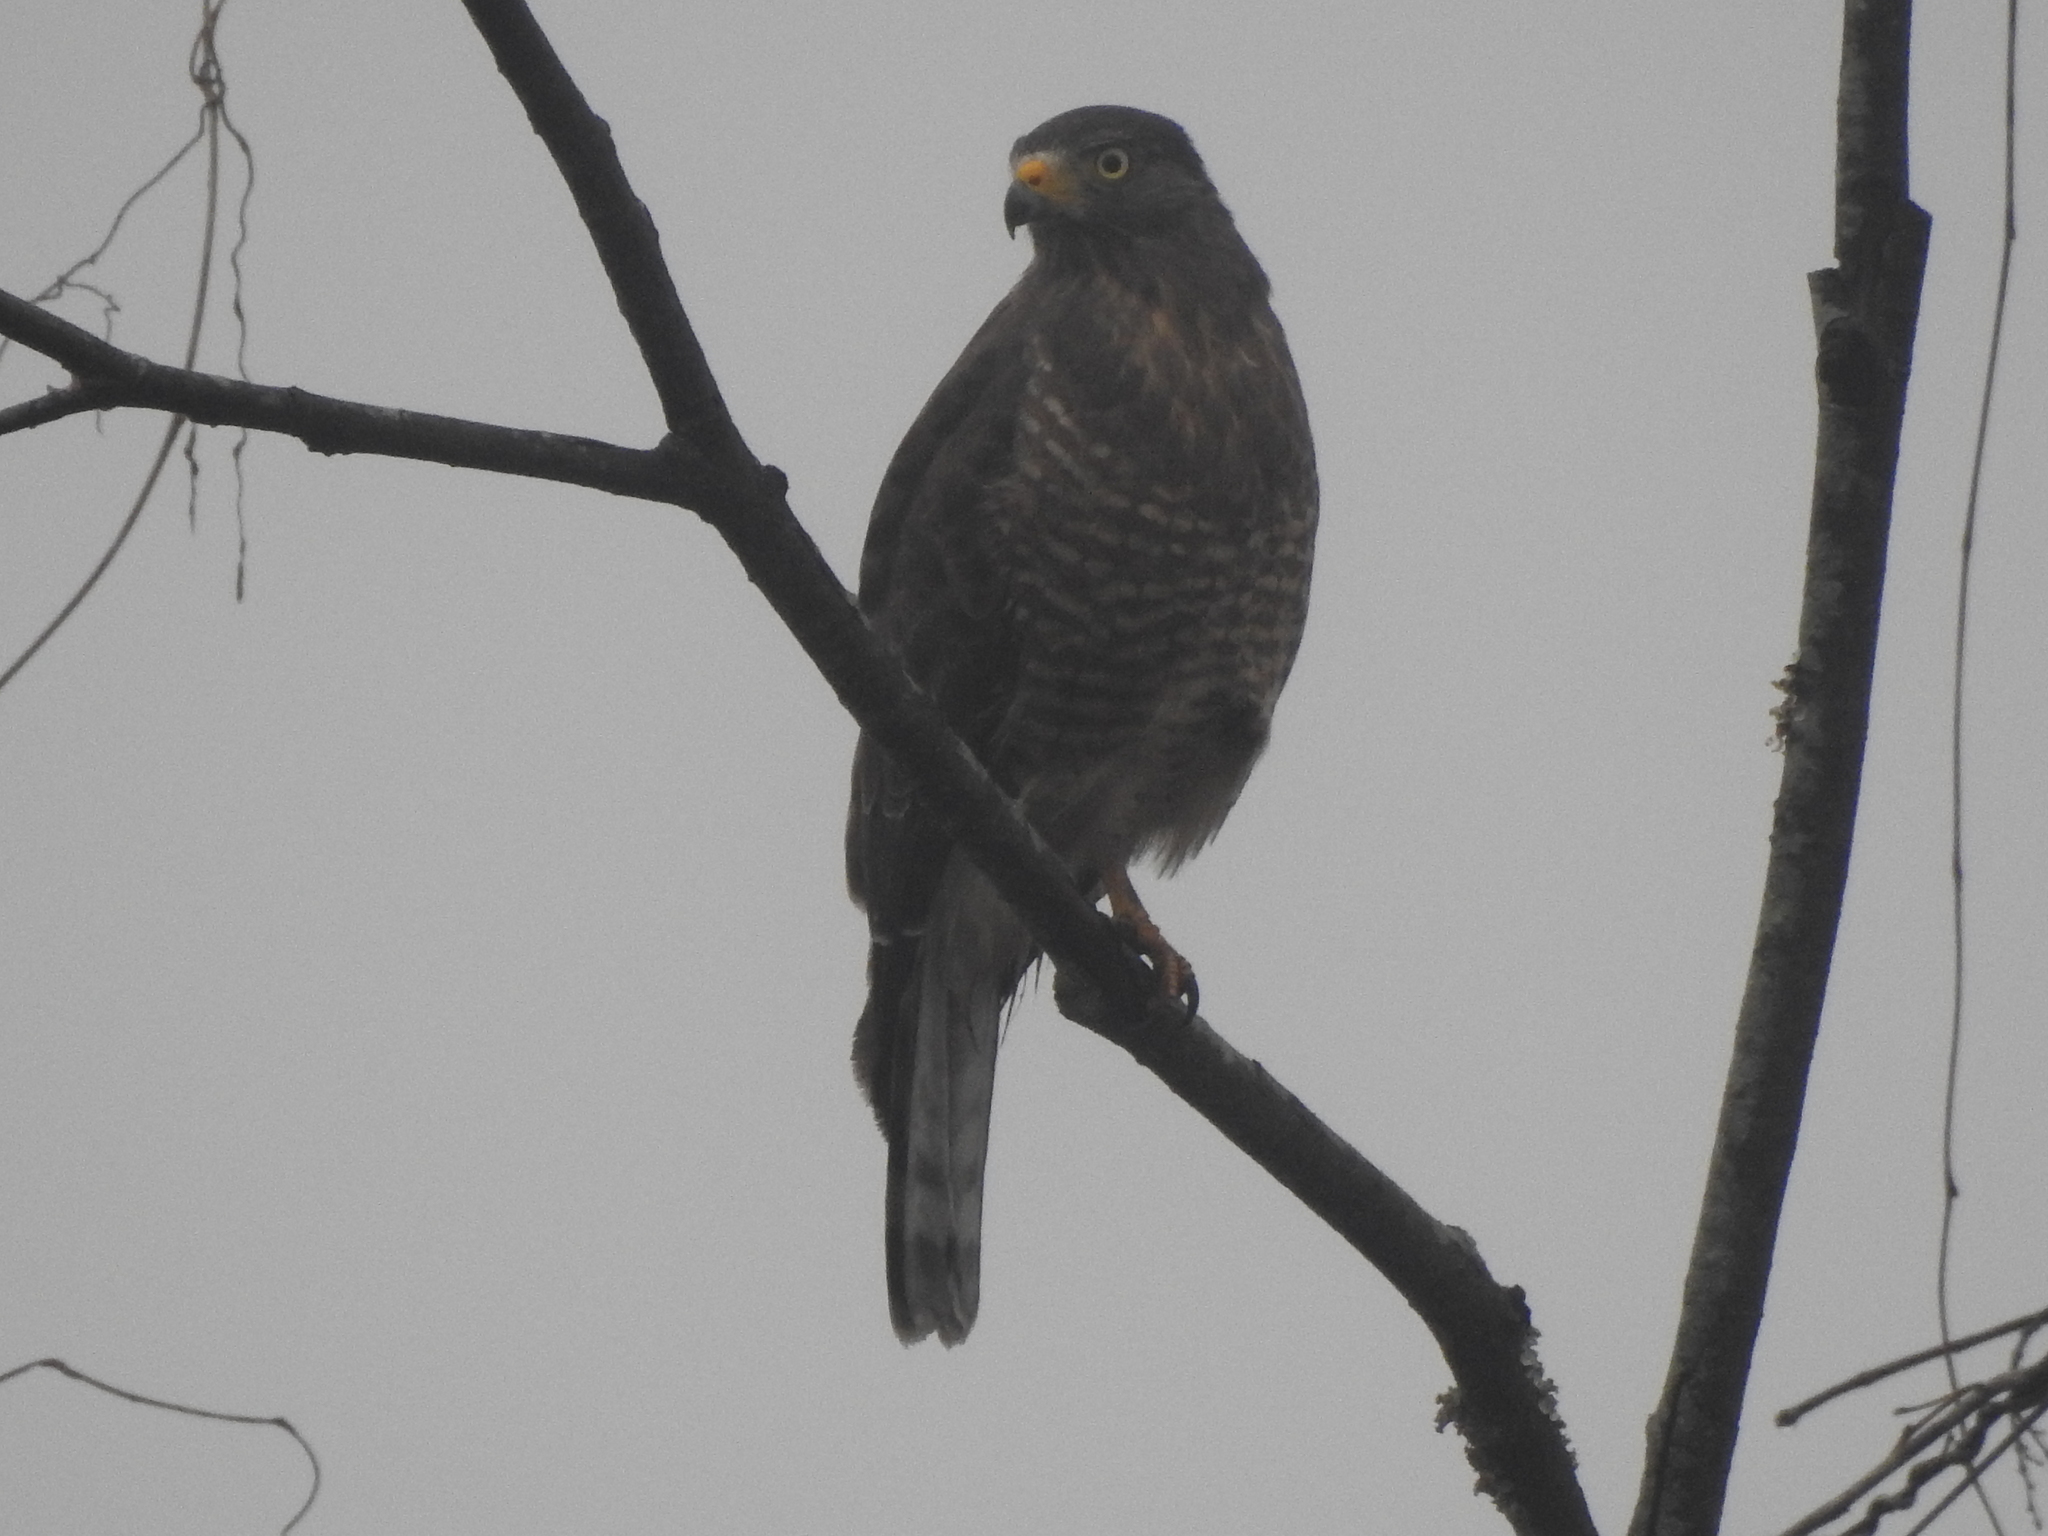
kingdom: Animalia
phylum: Chordata
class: Aves
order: Accipitriformes
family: Accipitridae
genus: Rupornis
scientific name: Rupornis magnirostris
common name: Roadside hawk
